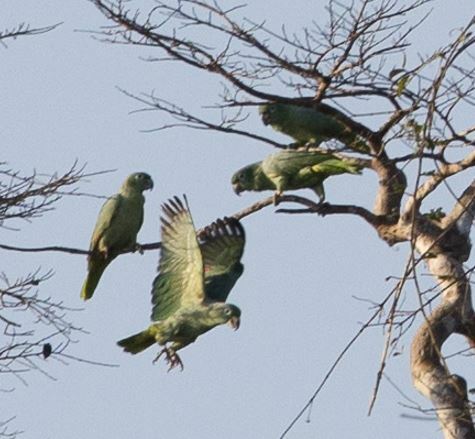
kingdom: Animalia
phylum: Chordata
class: Aves
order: Psittaciformes
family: Psittacidae
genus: Amazona
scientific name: Amazona farinosa
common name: Mealy parrot
